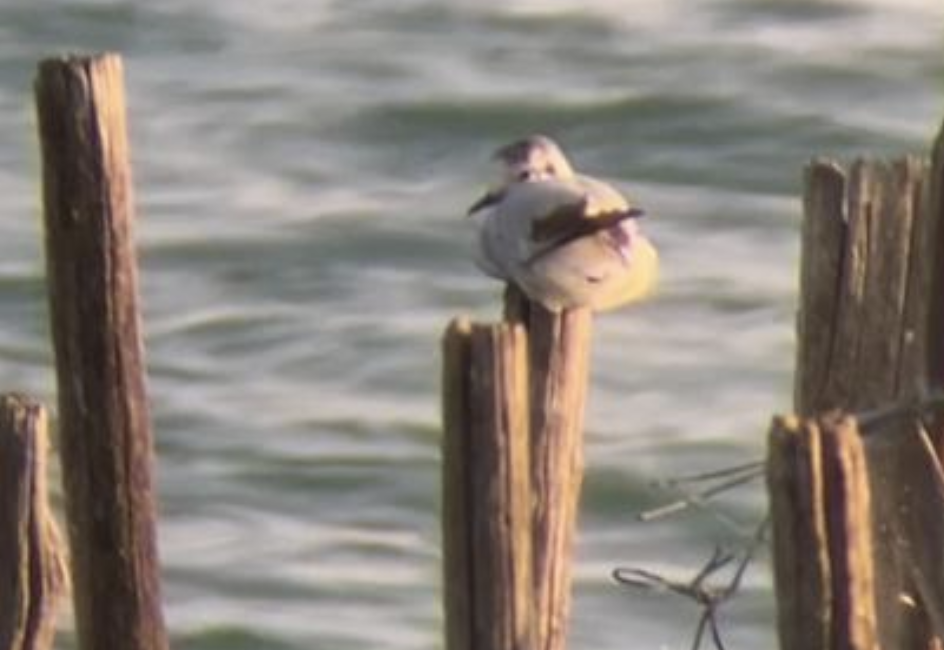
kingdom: Animalia
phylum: Chordata
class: Aves
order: Charadriiformes
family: Laridae
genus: Hydrocoloeus
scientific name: Hydrocoloeus minutus
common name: Little gull
